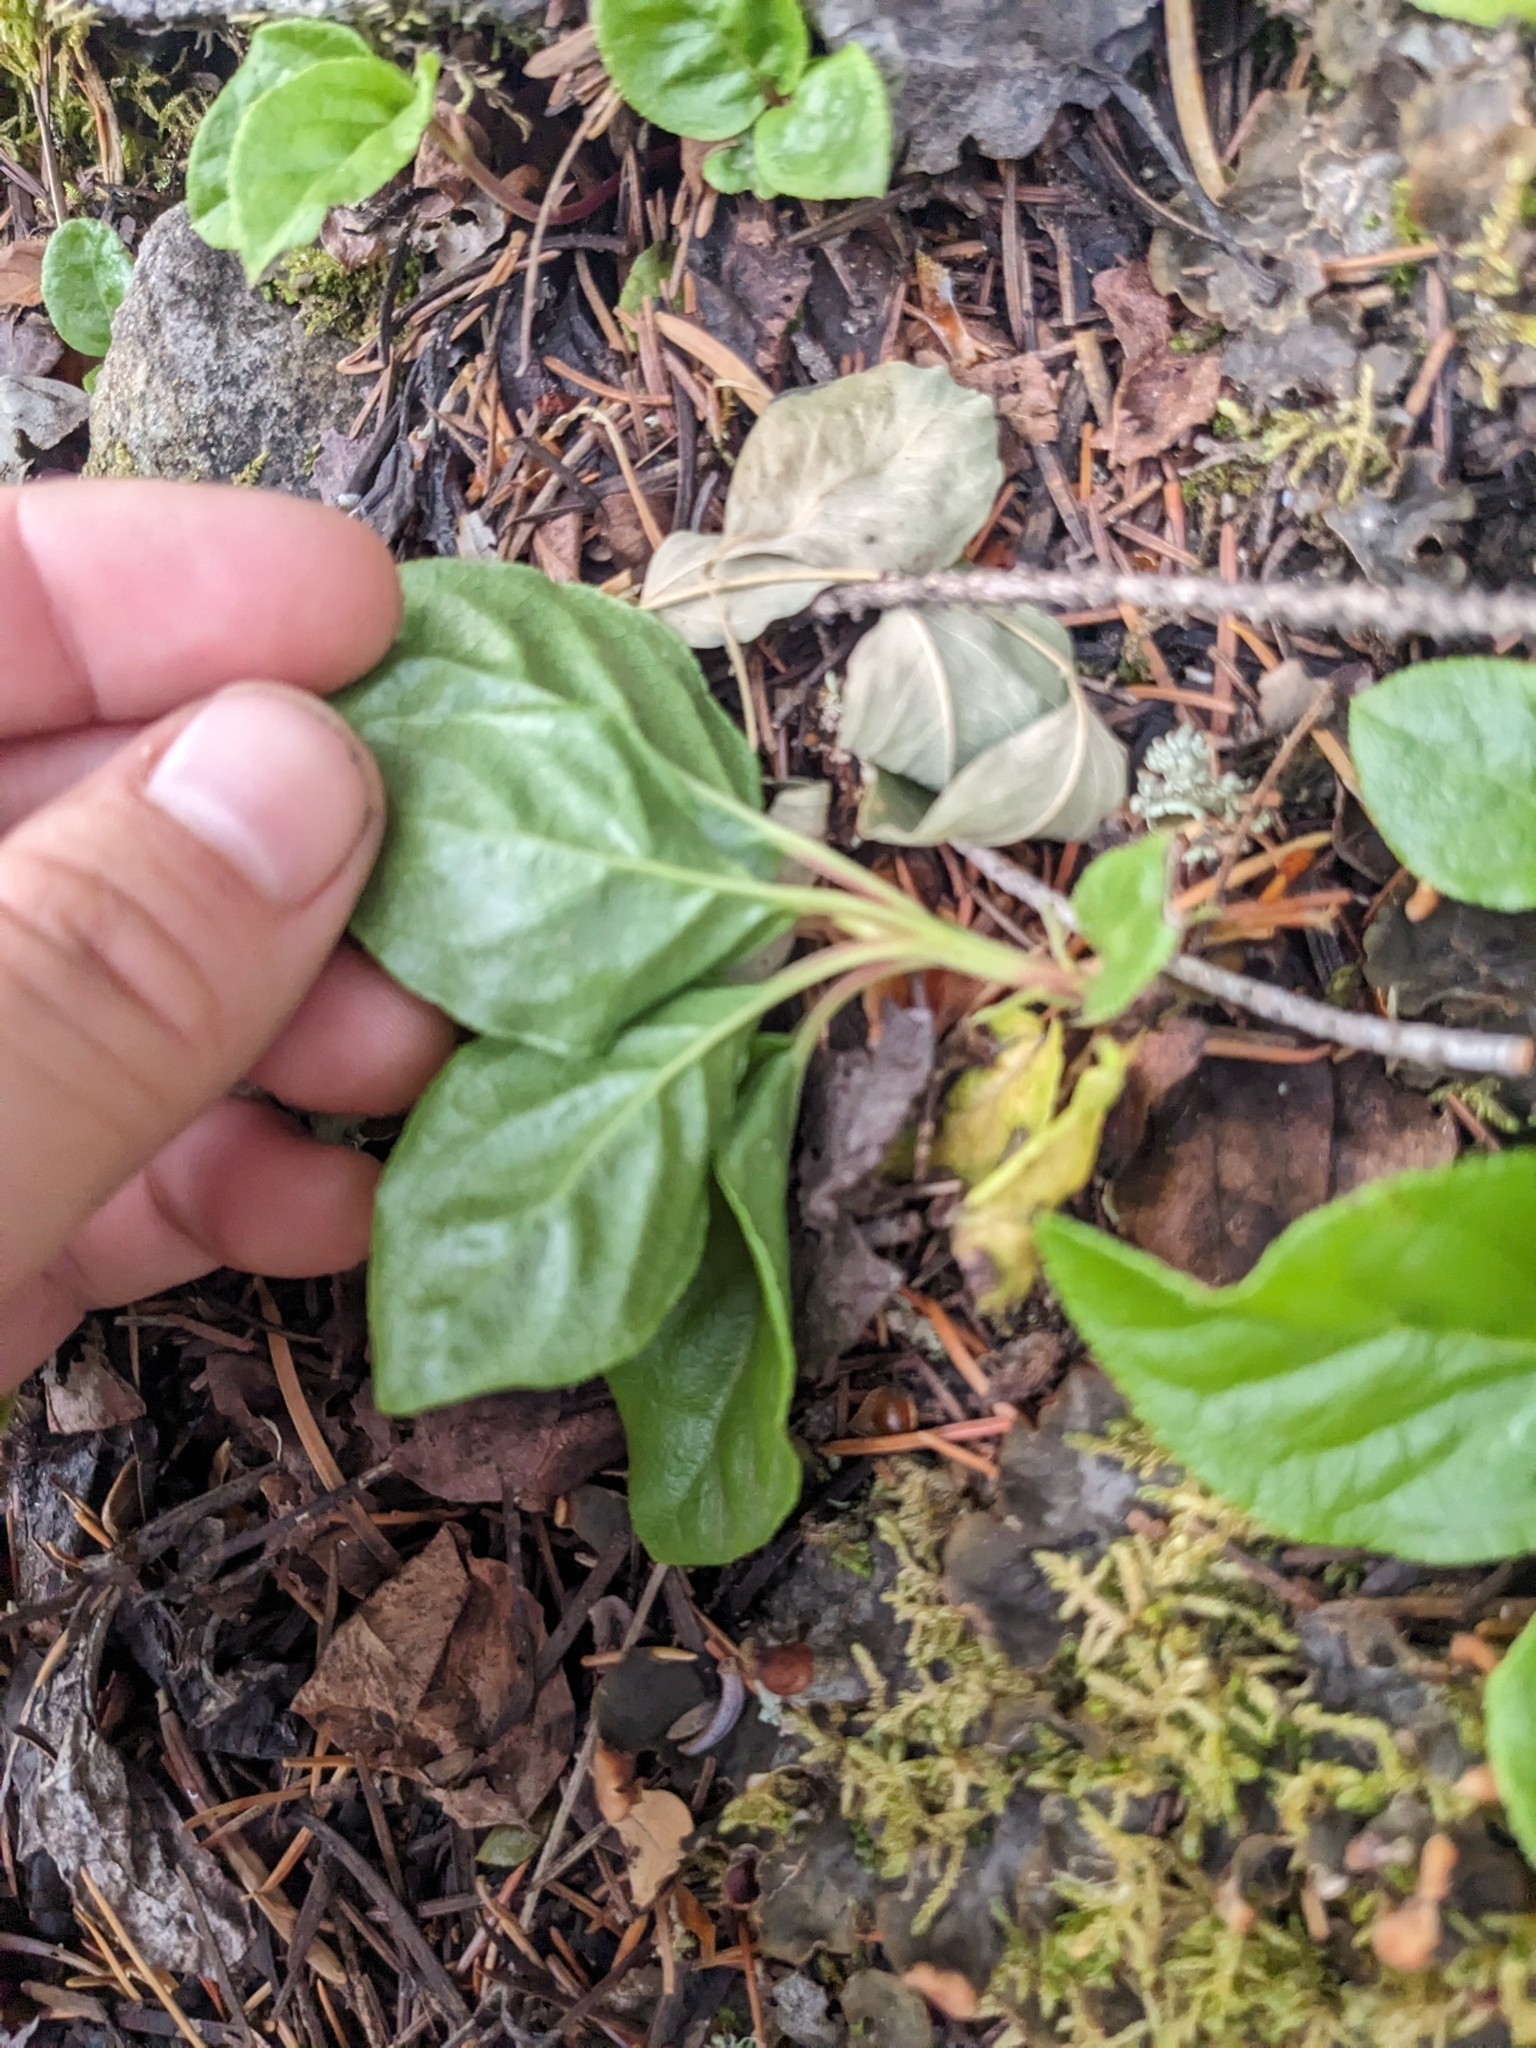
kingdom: Plantae
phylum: Tracheophyta
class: Magnoliopsida
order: Ericales
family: Ericaceae
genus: Orthilia
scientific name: Orthilia secunda
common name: One-sided orthilia
